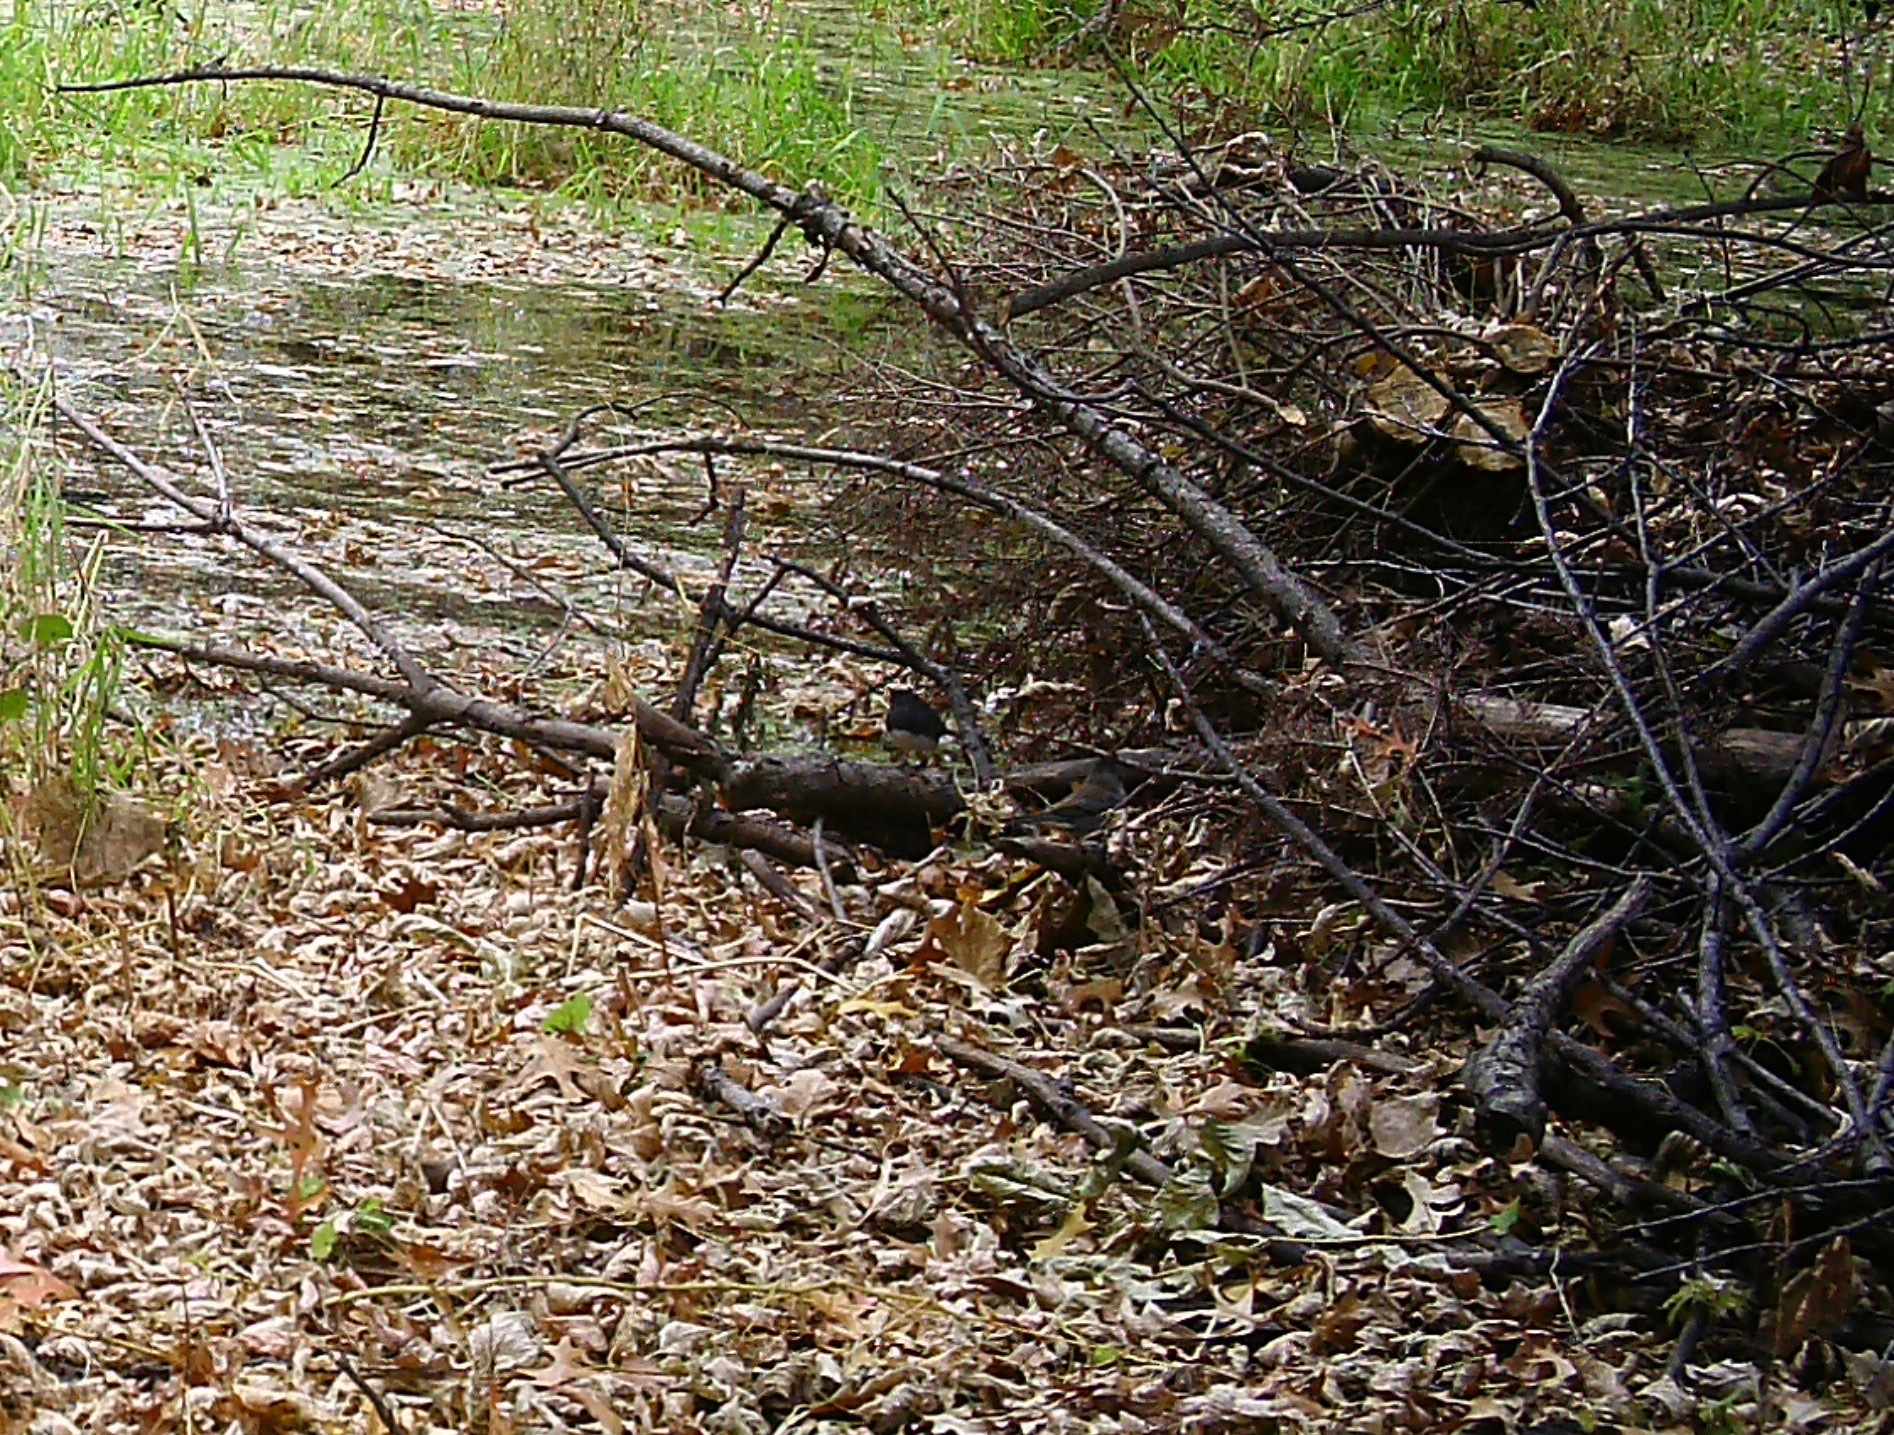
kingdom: Animalia
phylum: Chordata
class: Aves
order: Passeriformes
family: Passerellidae
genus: Junco
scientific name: Junco hyemalis
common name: Dark-eyed junco
